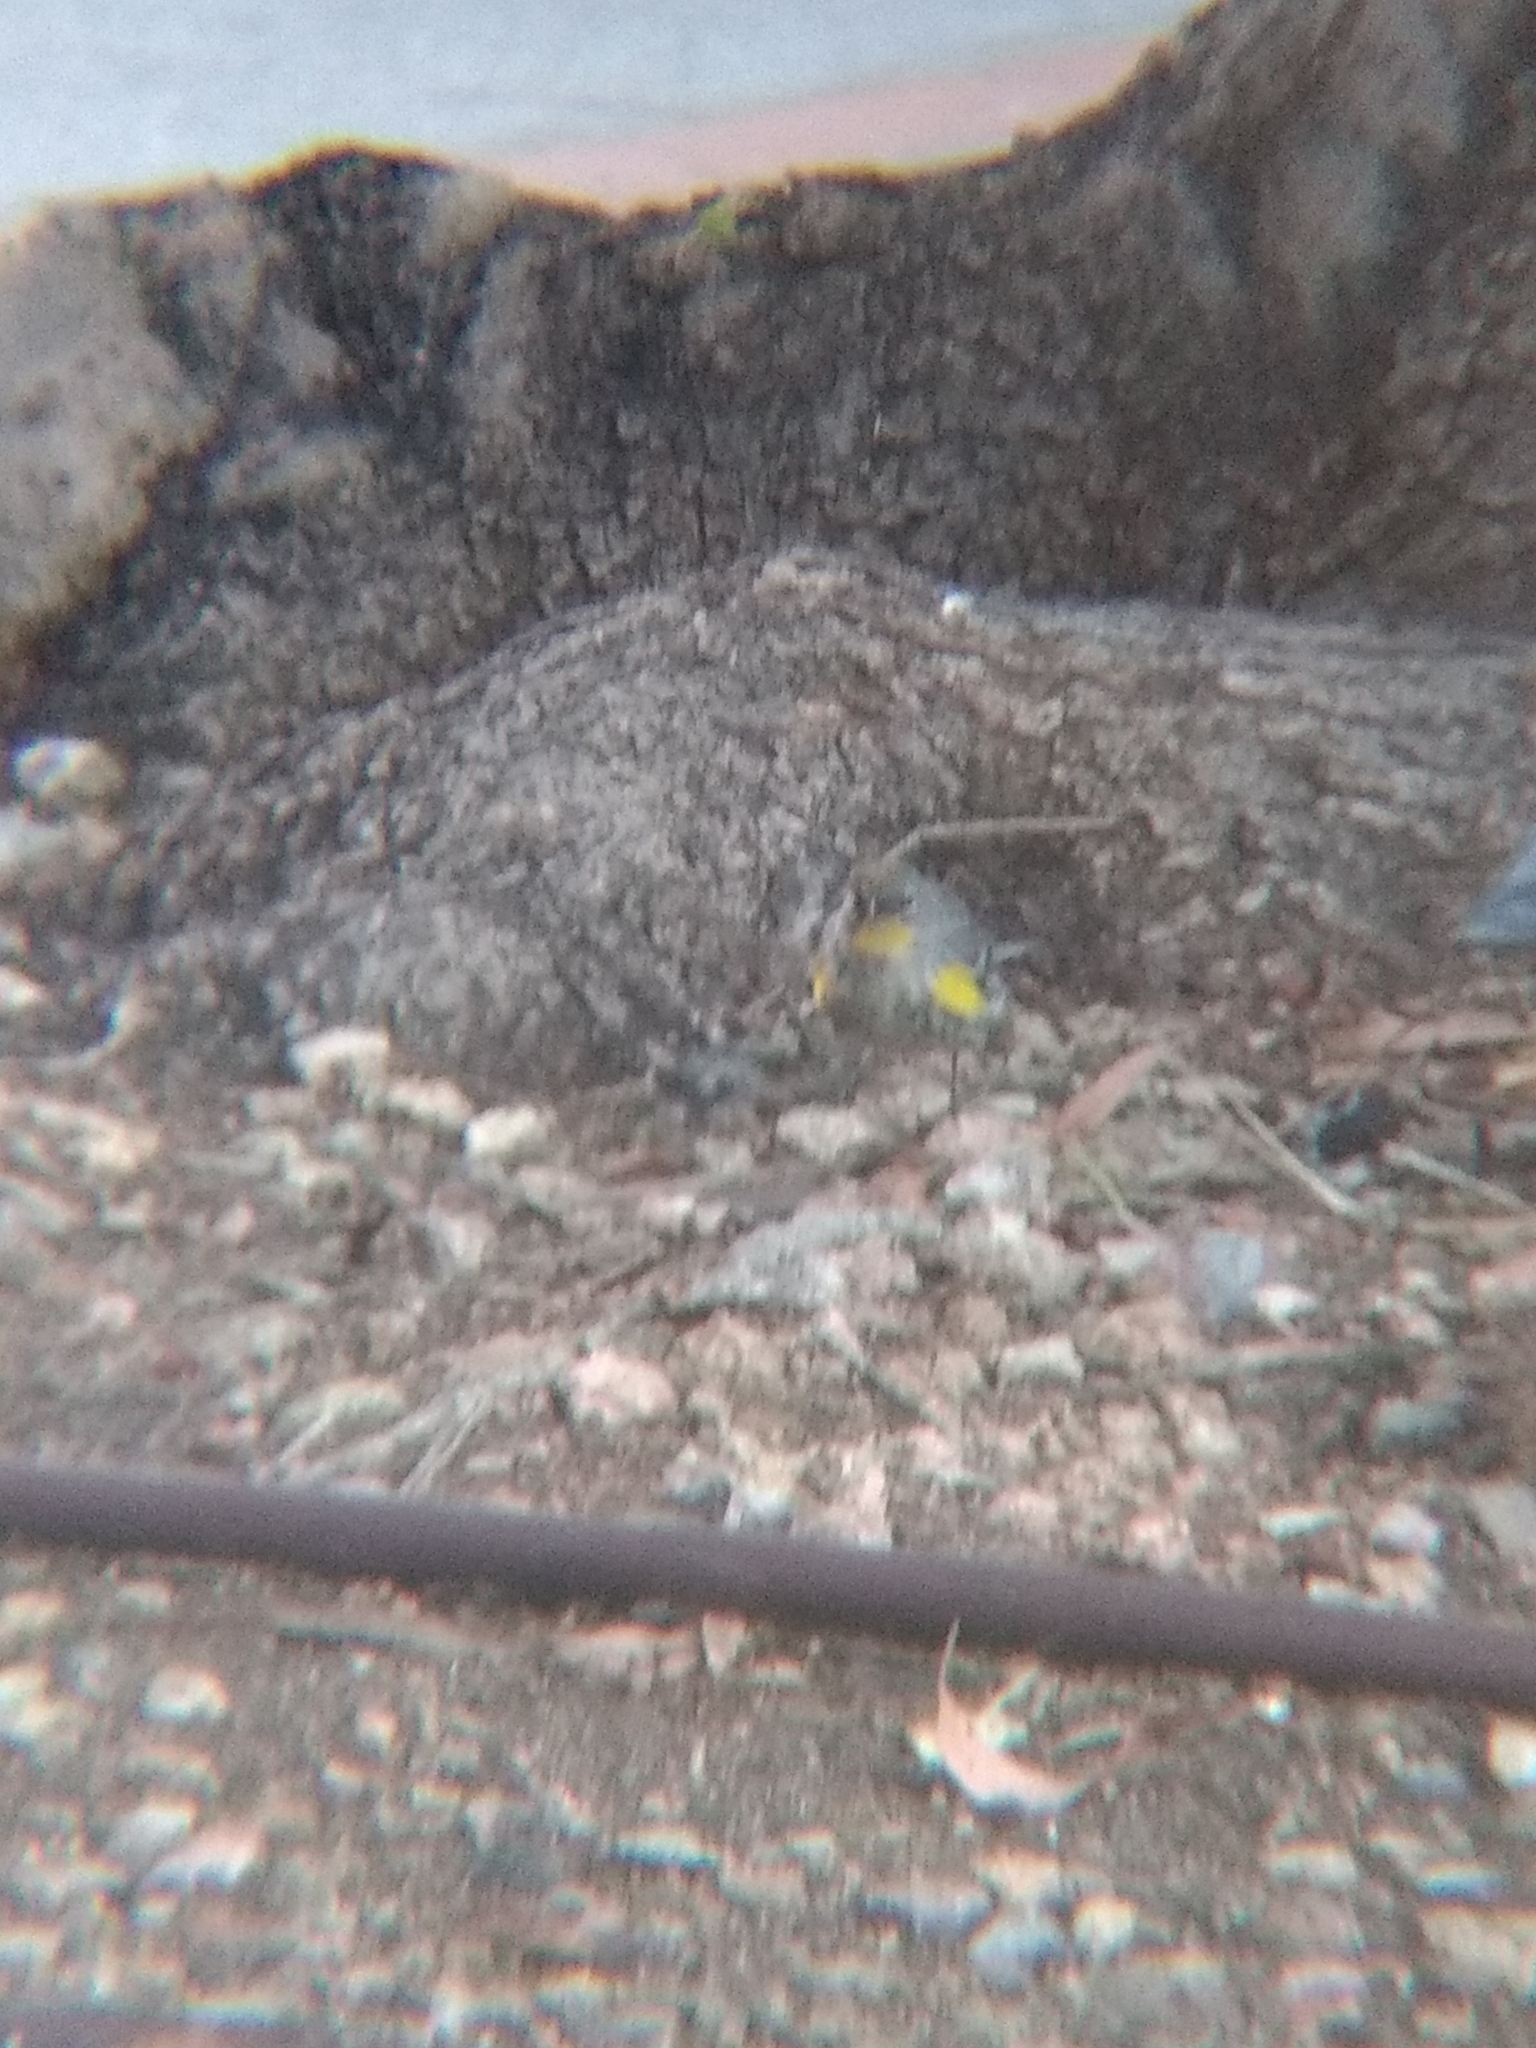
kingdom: Animalia
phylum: Chordata
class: Aves
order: Passeriformes
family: Parulidae
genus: Setophaga
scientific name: Setophaga coronata
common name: Myrtle warbler
